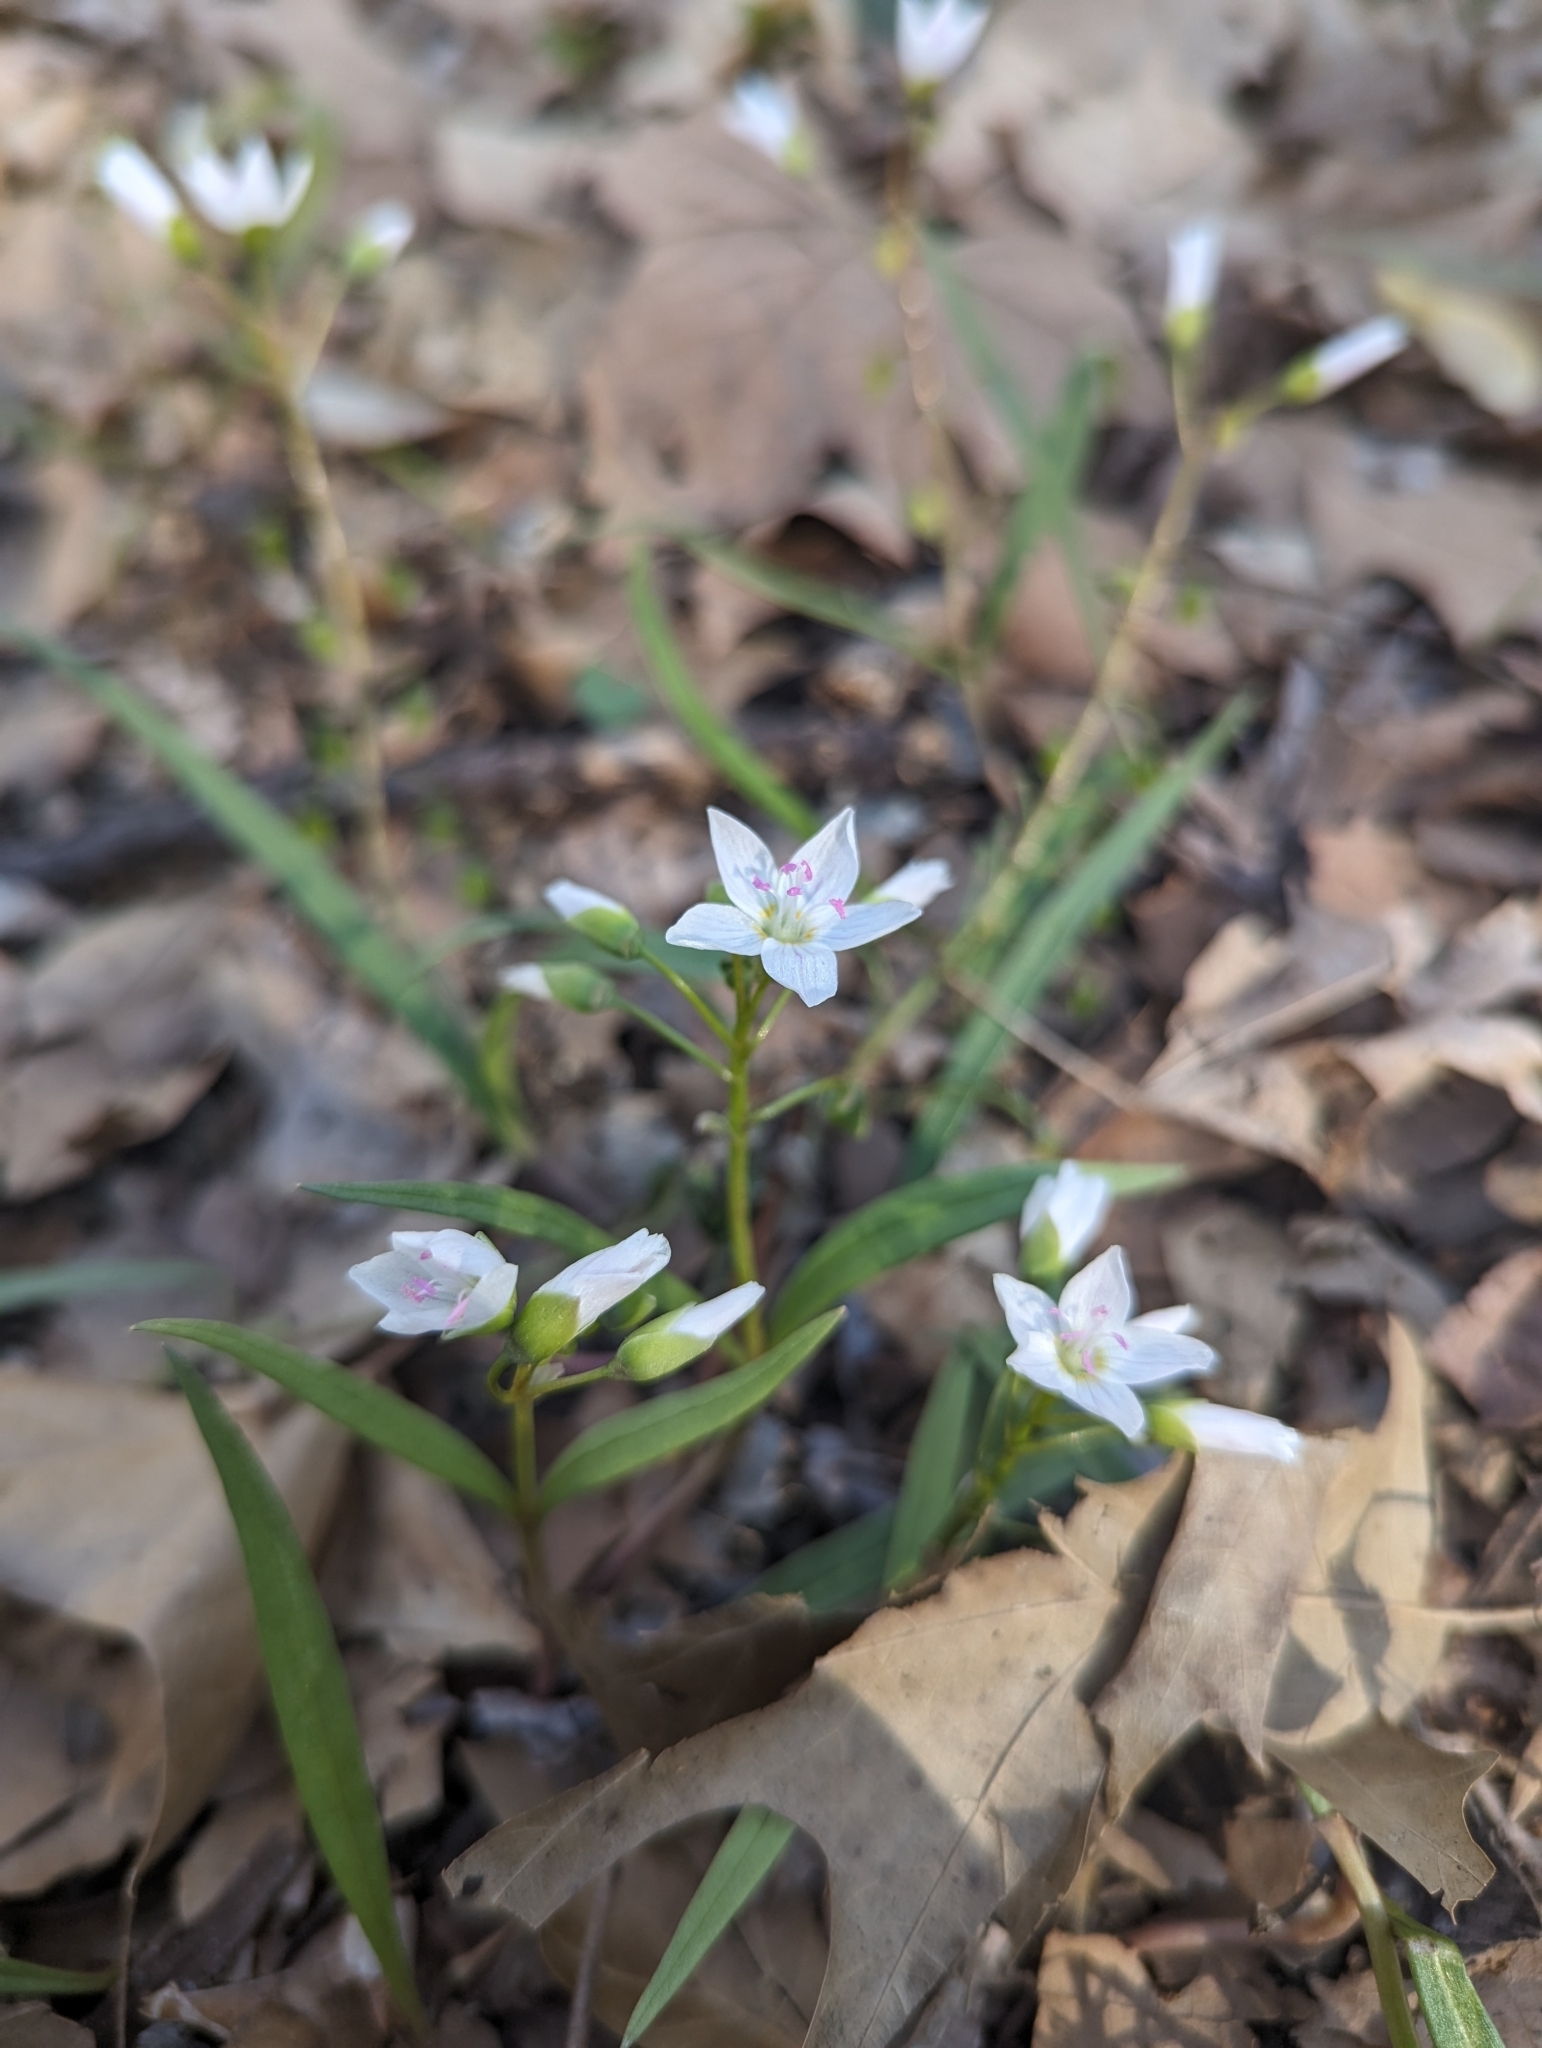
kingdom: Plantae
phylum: Tracheophyta
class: Magnoliopsida
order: Caryophyllales
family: Montiaceae
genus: Claytonia
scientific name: Claytonia virginica
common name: Virginia springbeauty
